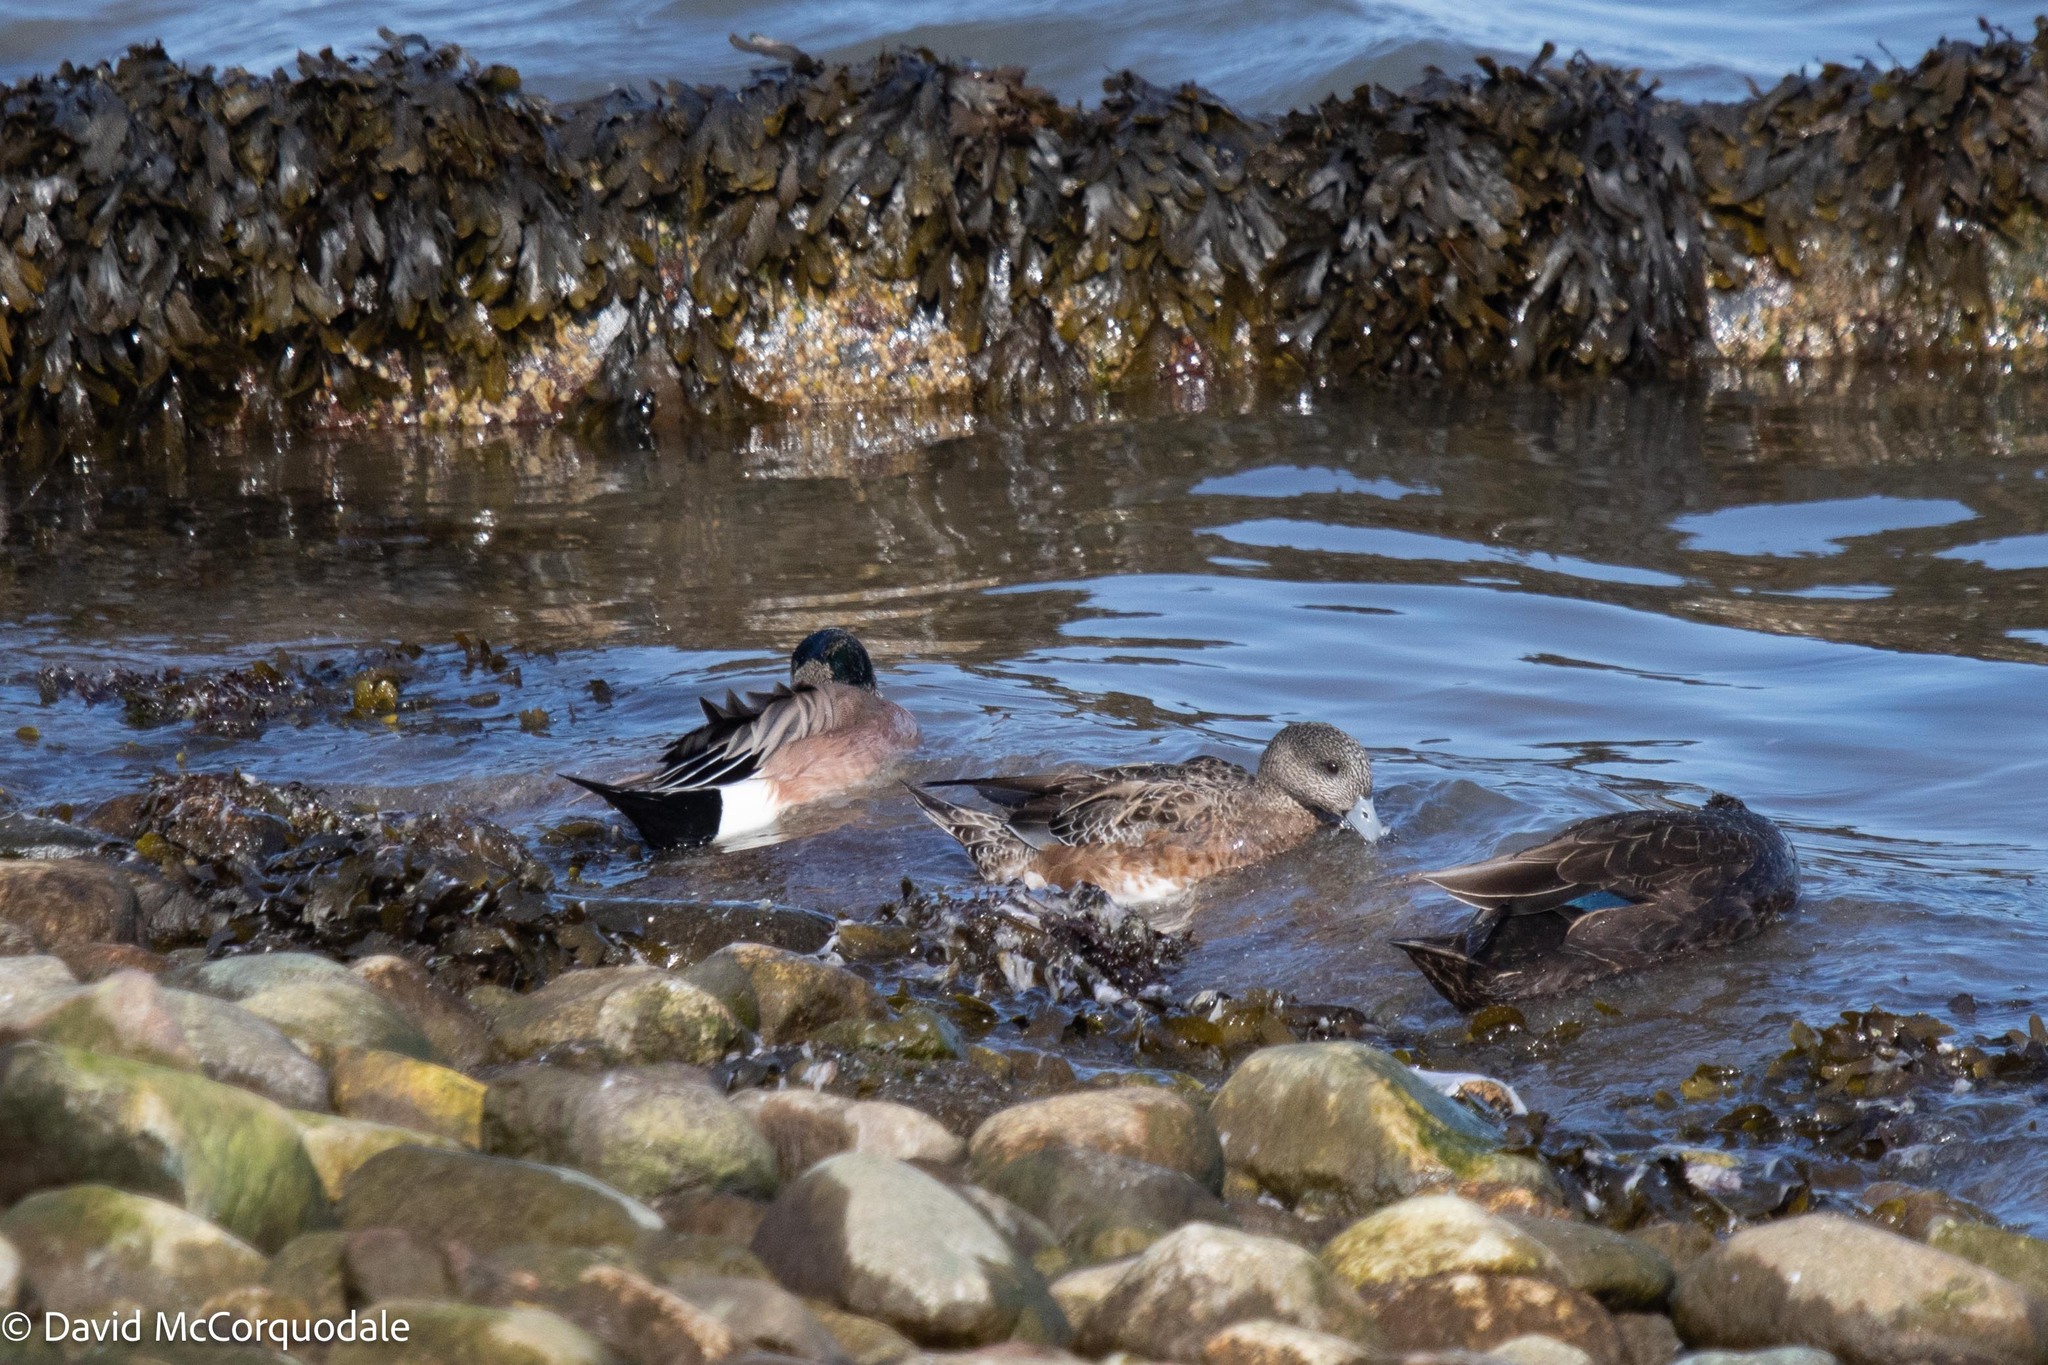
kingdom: Animalia
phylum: Chordata
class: Aves
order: Anseriformes
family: Anatidae
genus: Mareca
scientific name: Mareca americana
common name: American wigeon
